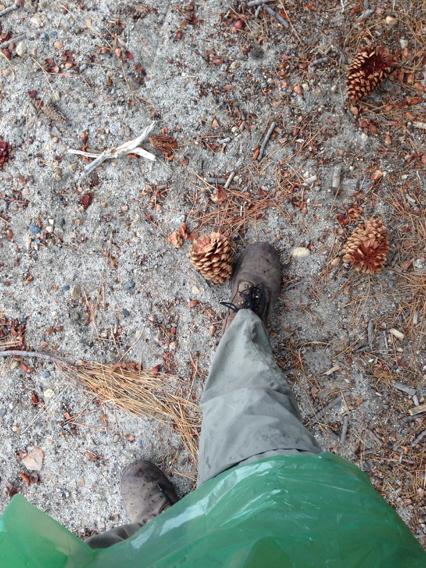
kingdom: Plantae
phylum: Tracheophyta
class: Pinopsida
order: Pinales
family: Pinaceae
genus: Pinus
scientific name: Pinus jeffreyi
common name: Jeffrey pine
